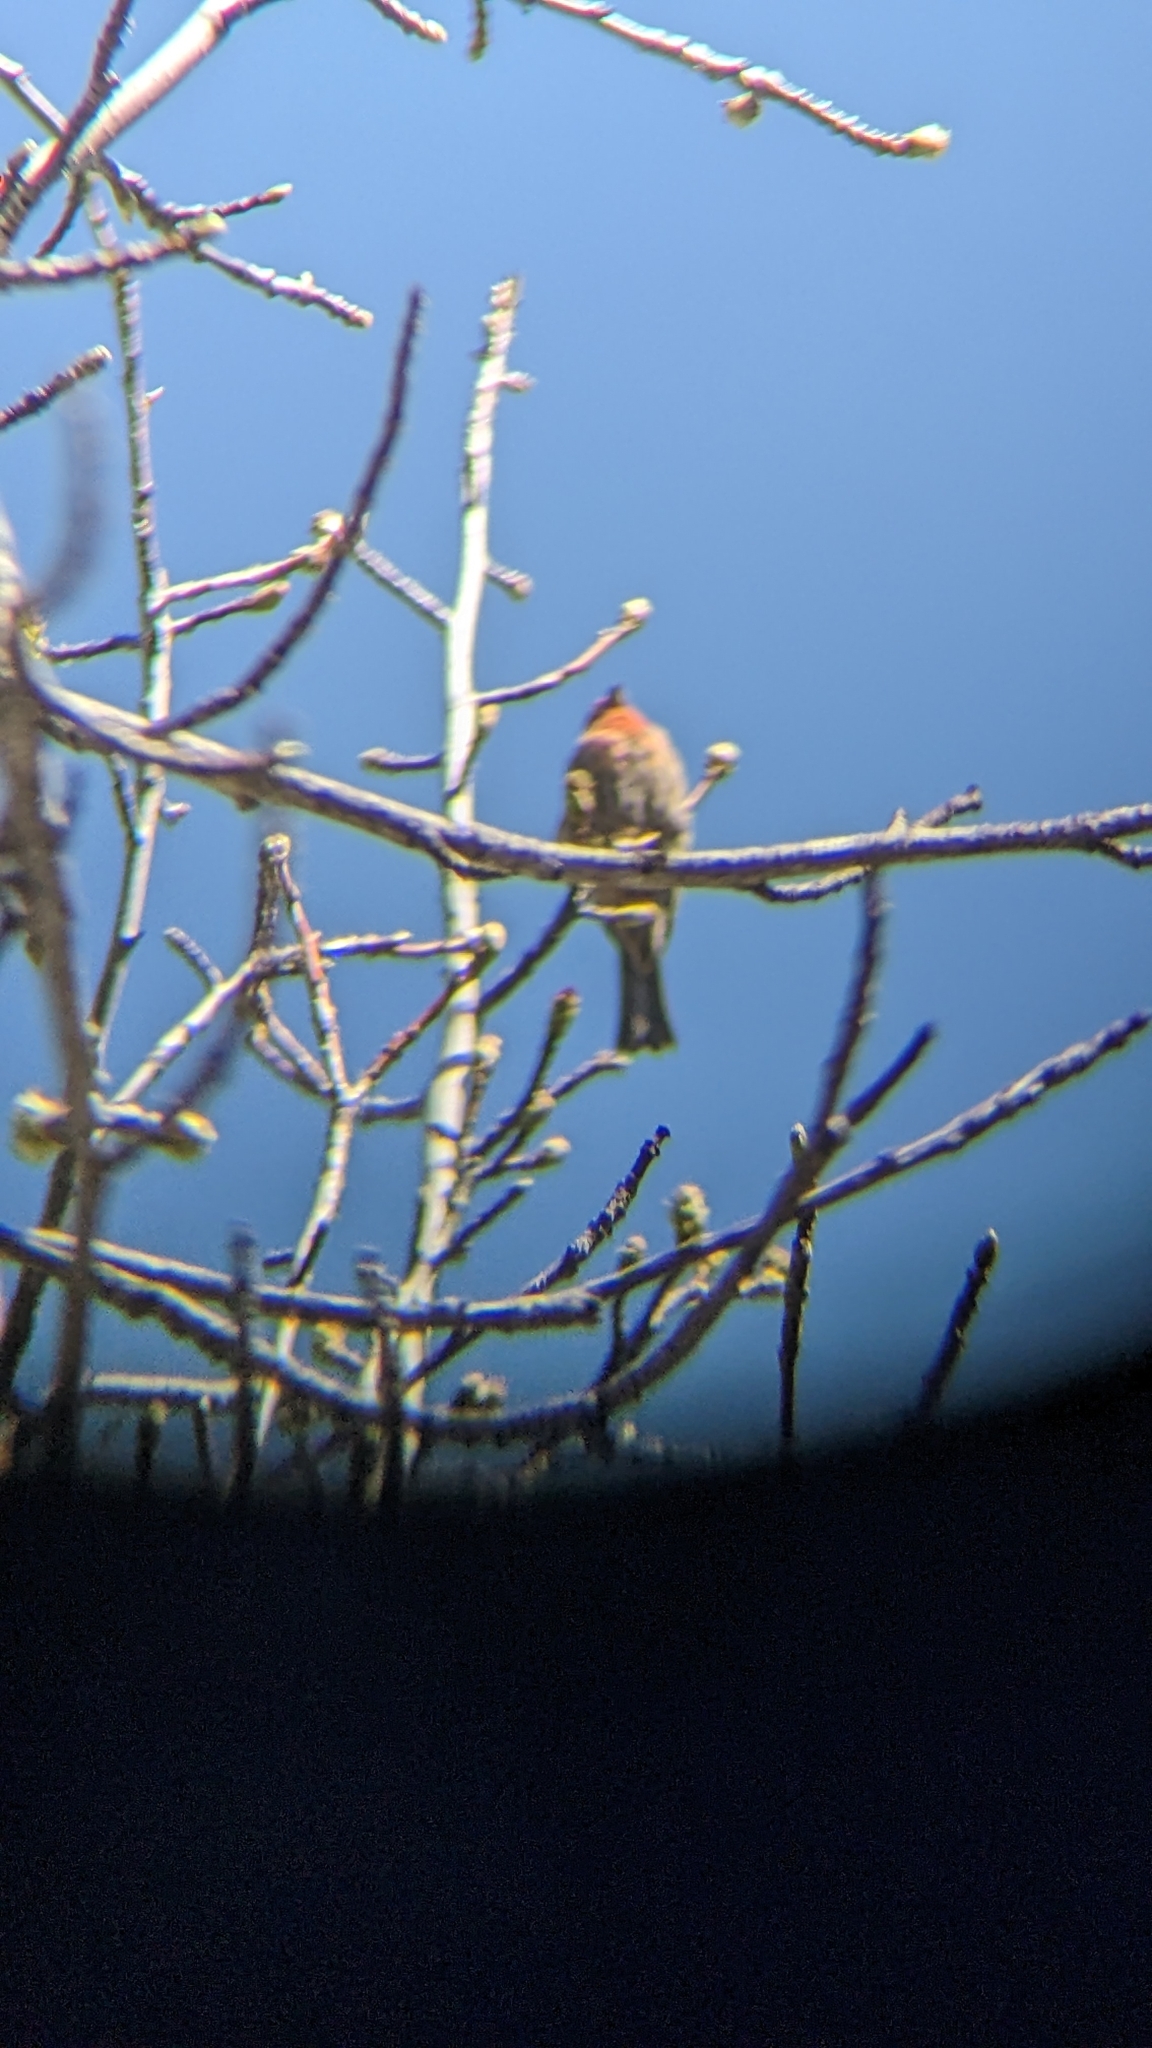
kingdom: Animalia
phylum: Chordata
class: Aves
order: Passeriformes
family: Fringillidae
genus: Haemorhous
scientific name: Haemorhous mexicanus
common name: House finch
